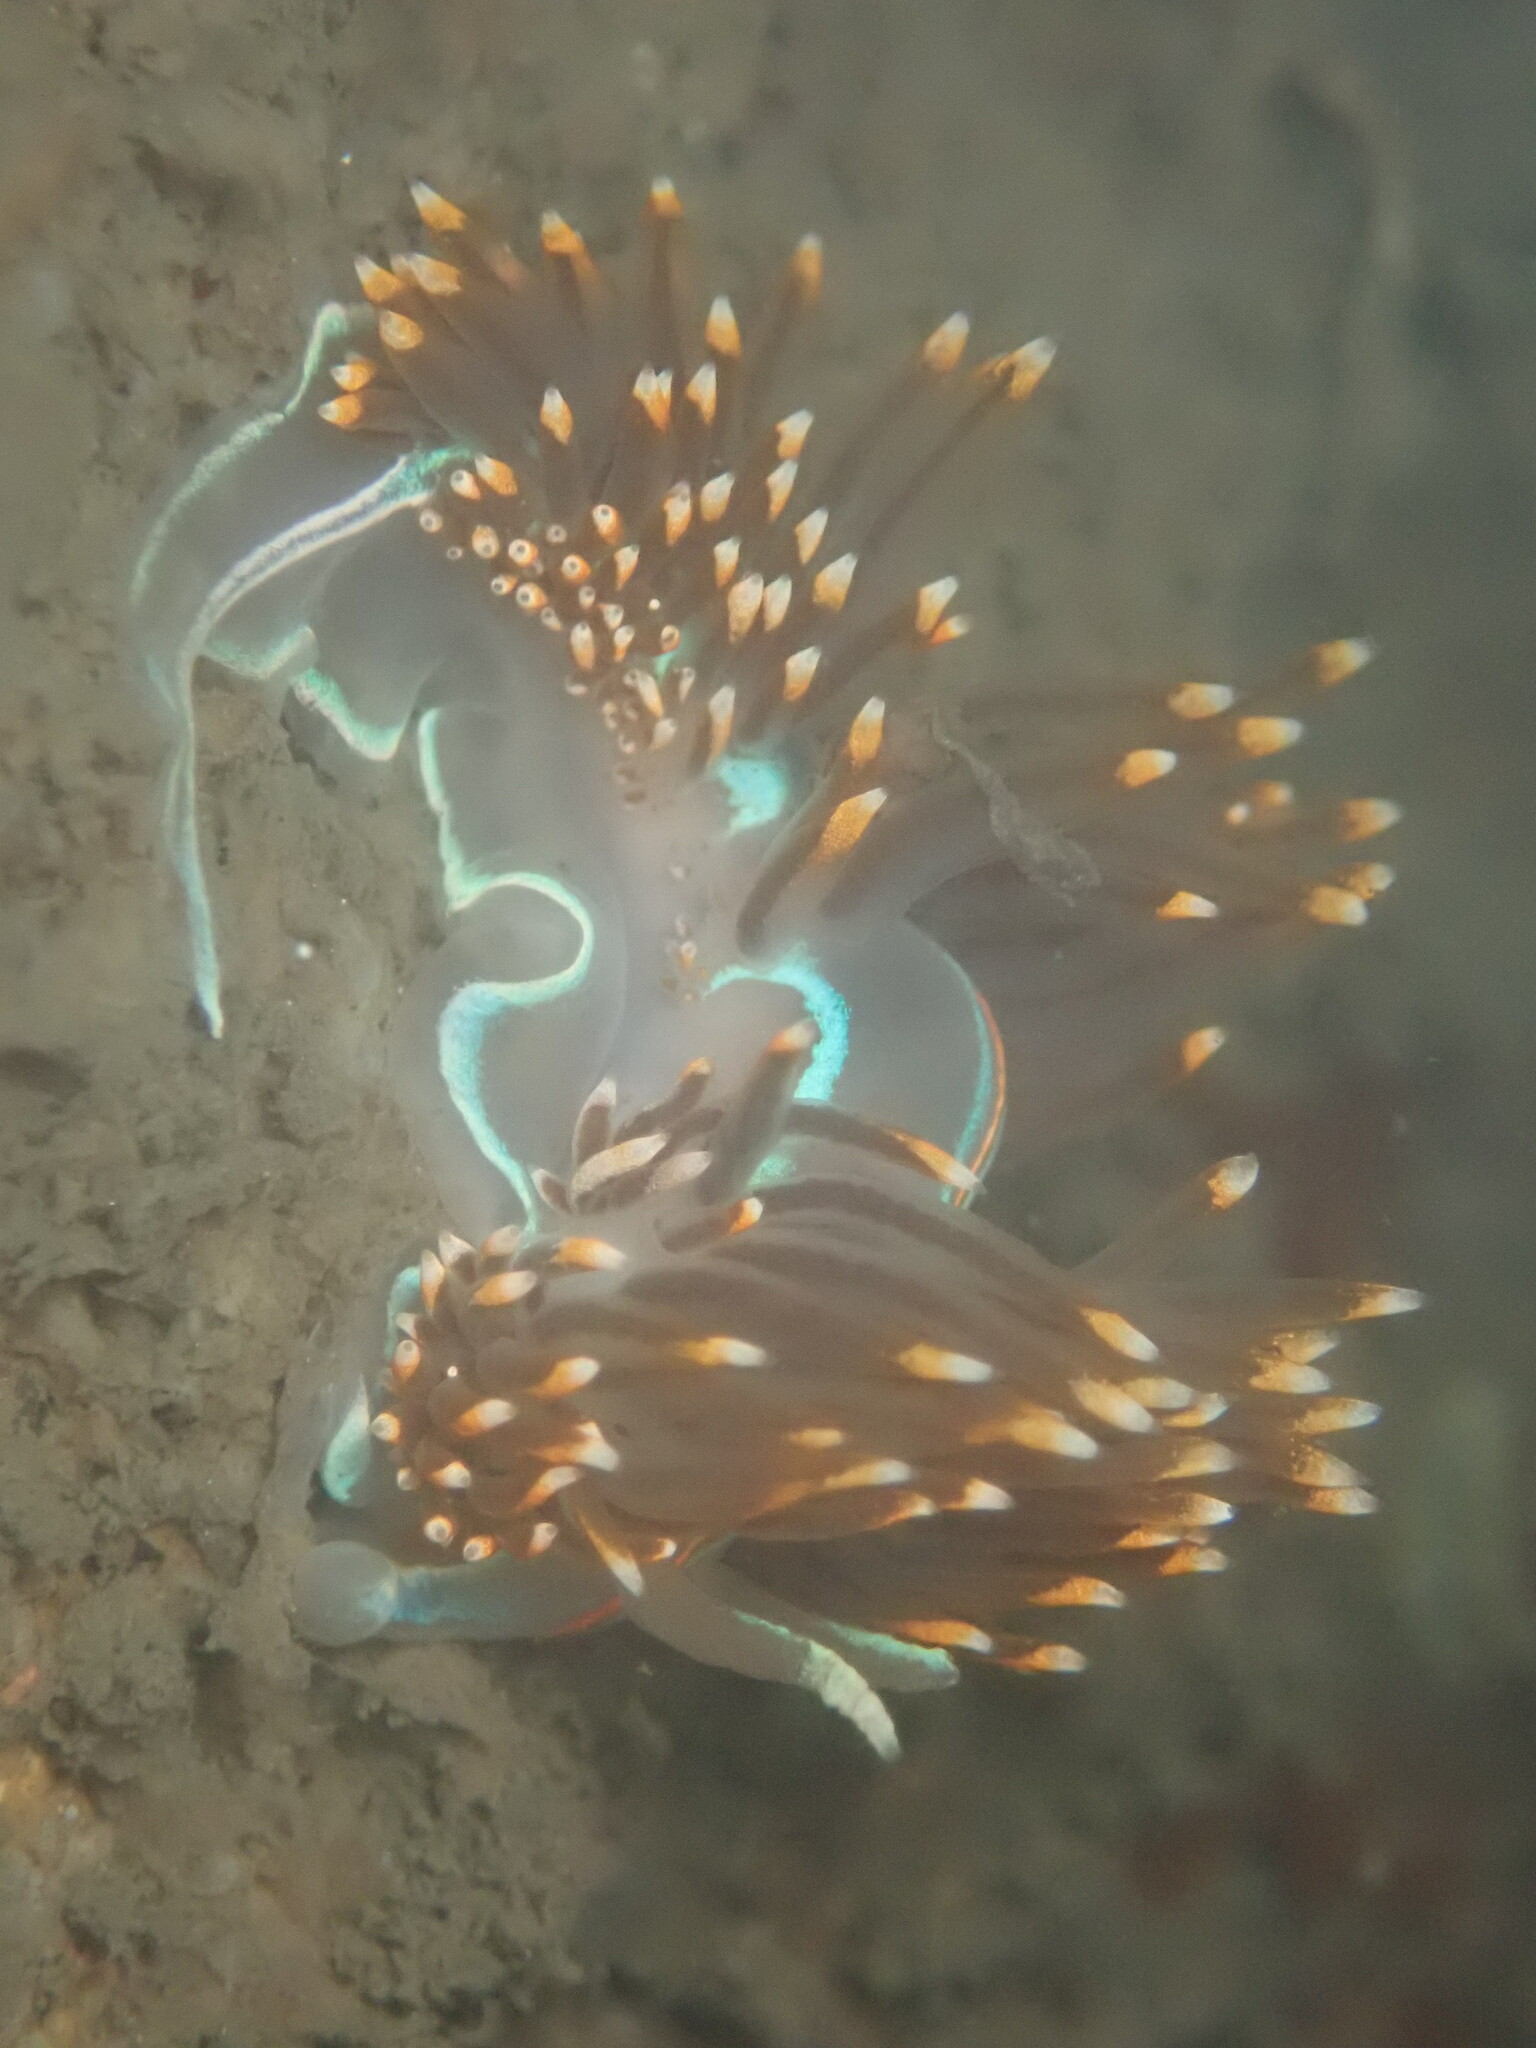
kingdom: Animalia
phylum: Mollusca
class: Gastropoda
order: Nudibranchia
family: Myrrhinidae
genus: Hermissenda
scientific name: Hermissenda opalescens
